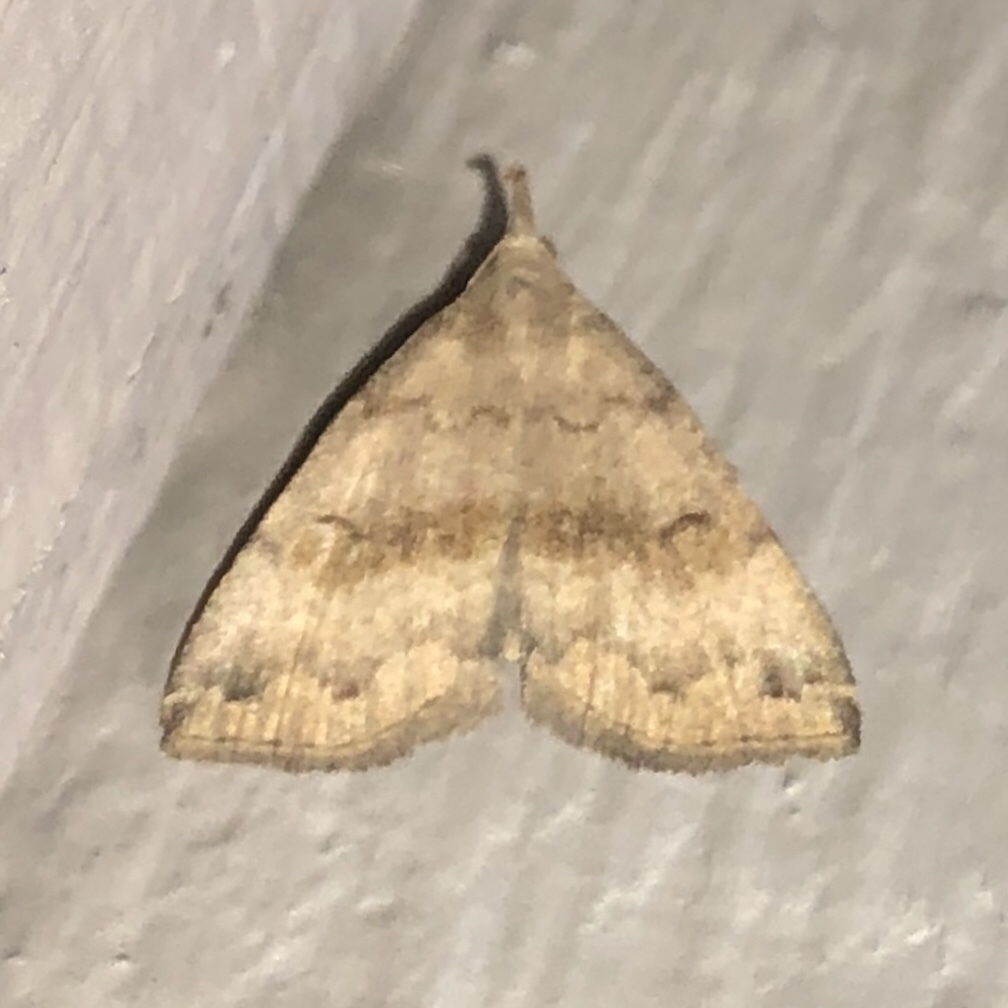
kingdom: Animalia
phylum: Arthropoda
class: Insecta
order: Lepidoptera
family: Erebidae
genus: Phalaenostola
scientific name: Phalaenostola eumelusalis
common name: Dark phalaenostola moth
